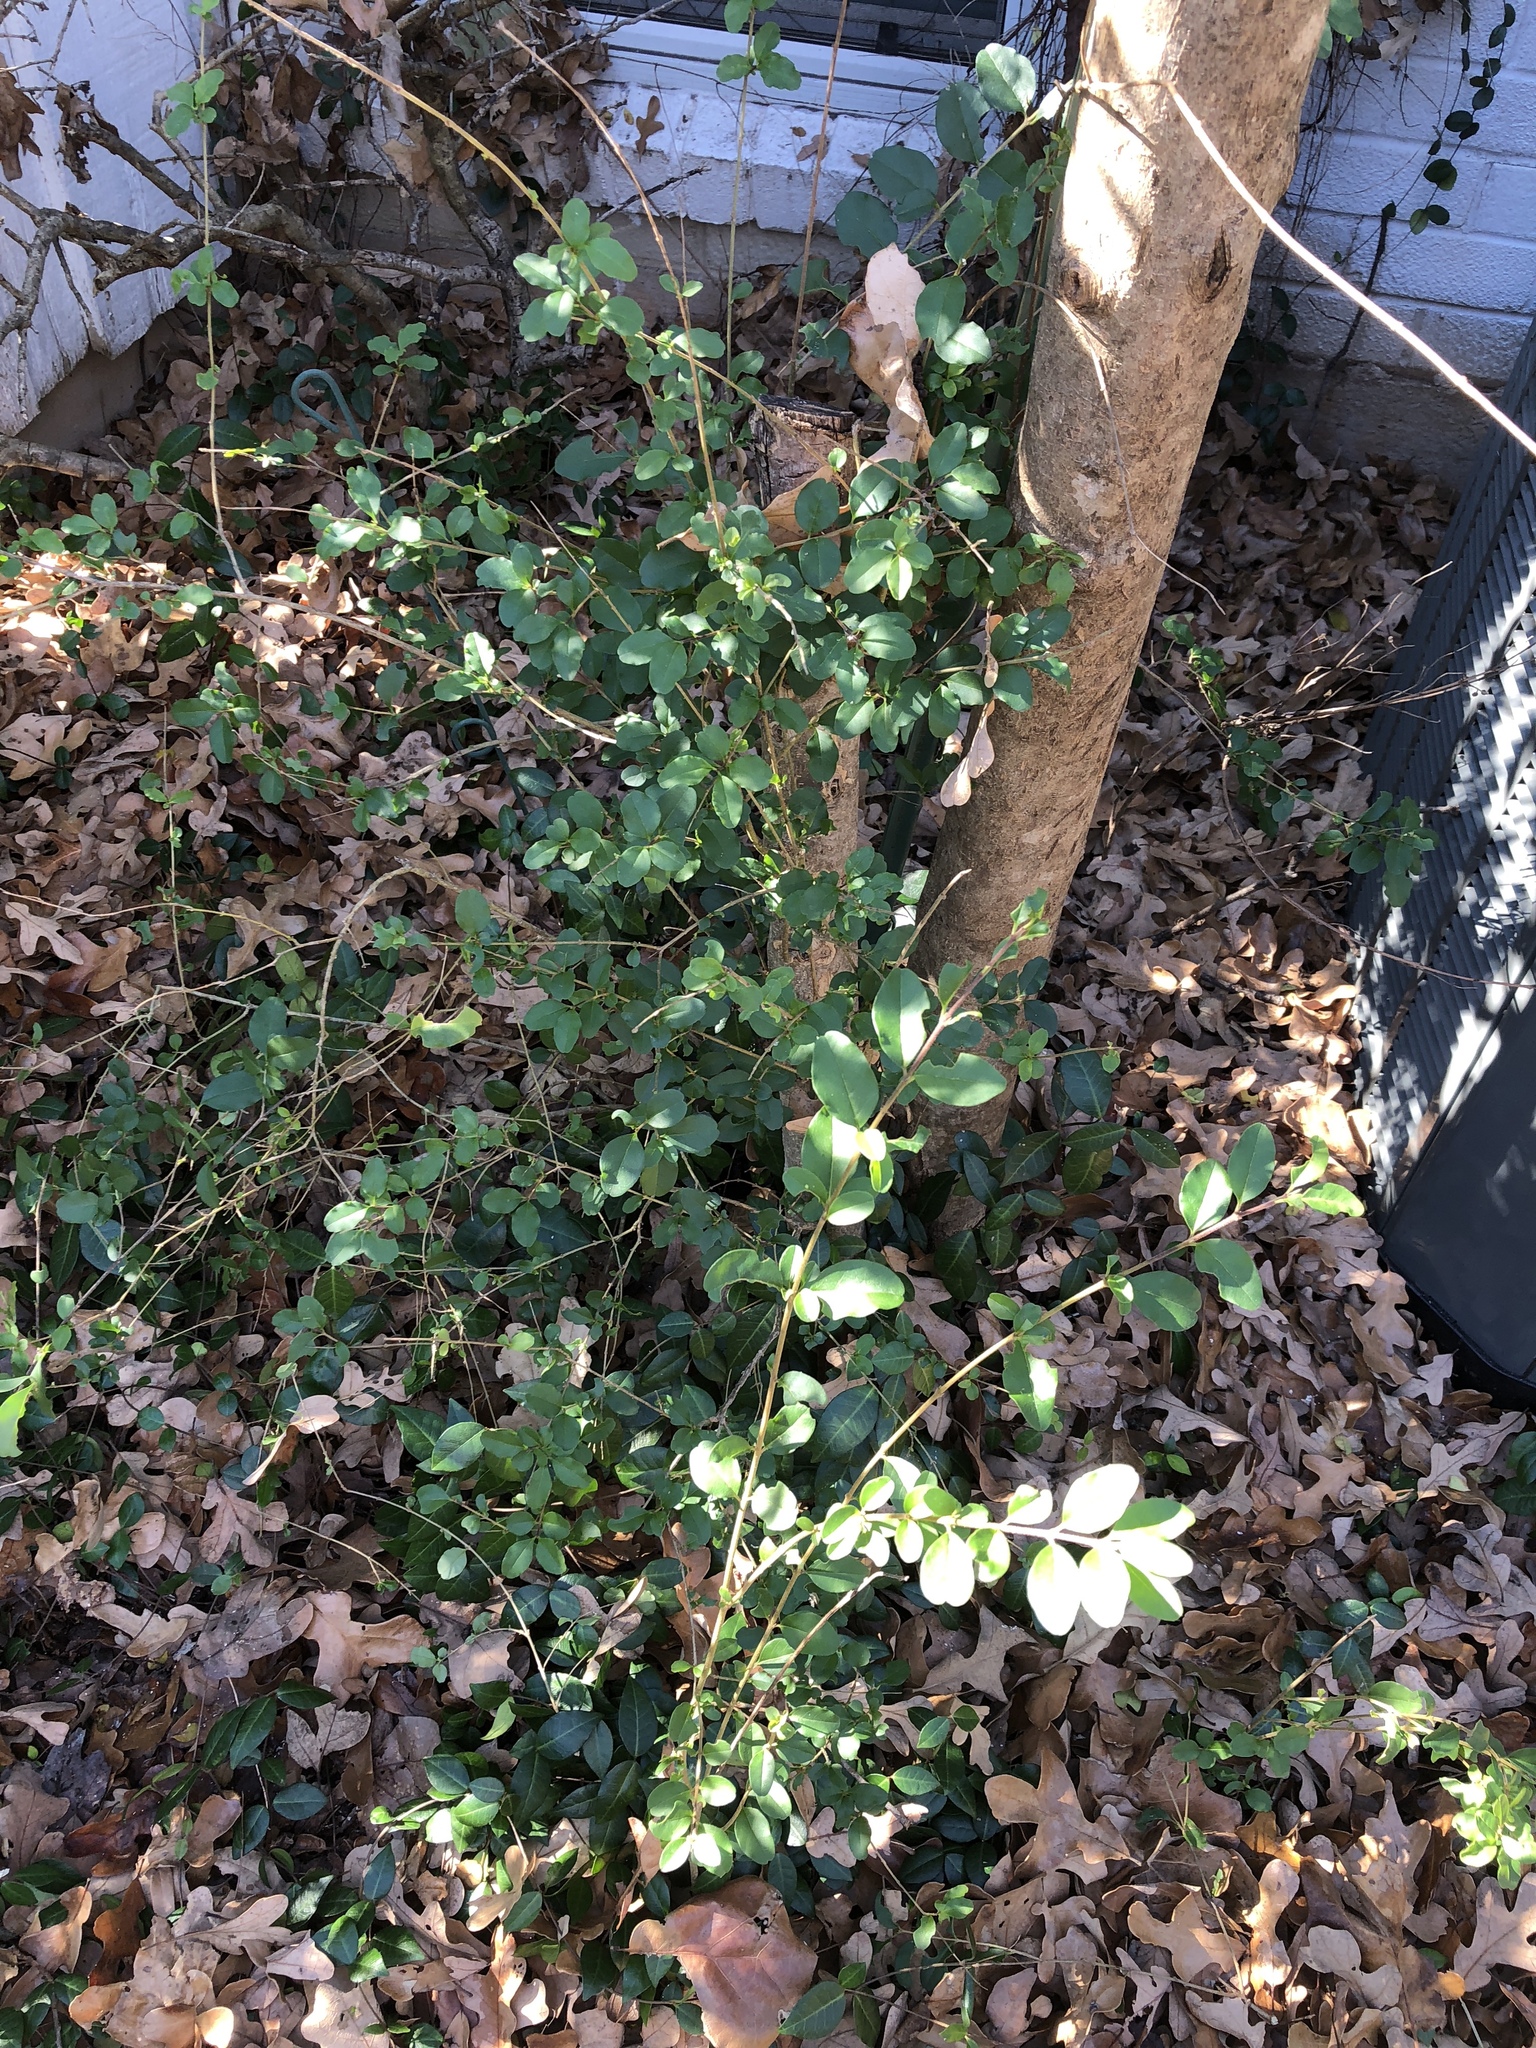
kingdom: Plantae
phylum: Tracheophyta
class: Magnoliopsida
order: Lamiales
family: Oleaceae
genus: Ligustrum
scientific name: Ligustrum sinense
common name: Chinese privet
